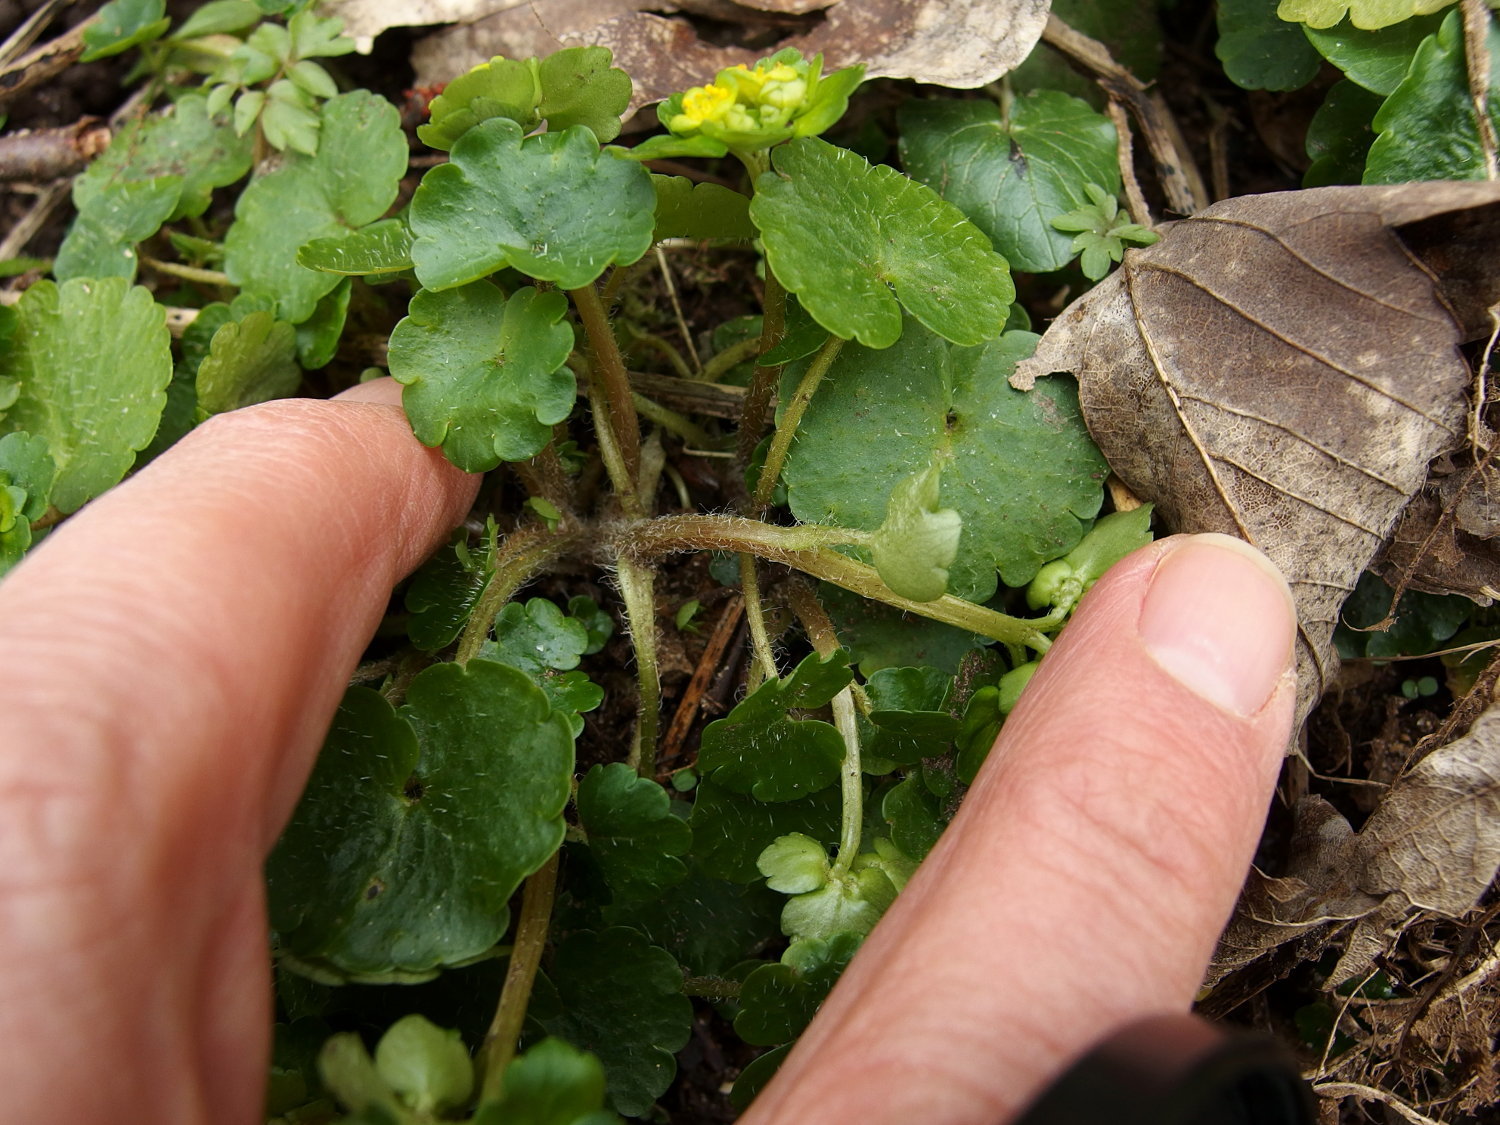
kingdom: Plantae
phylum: Tracheophyta
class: Magnoliopsida
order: Saxifragales
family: Saxifragaceae
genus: Chrysosplenium
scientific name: Chrysosplenium alternifolium
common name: Alternate-leaved golden-saxifrage
